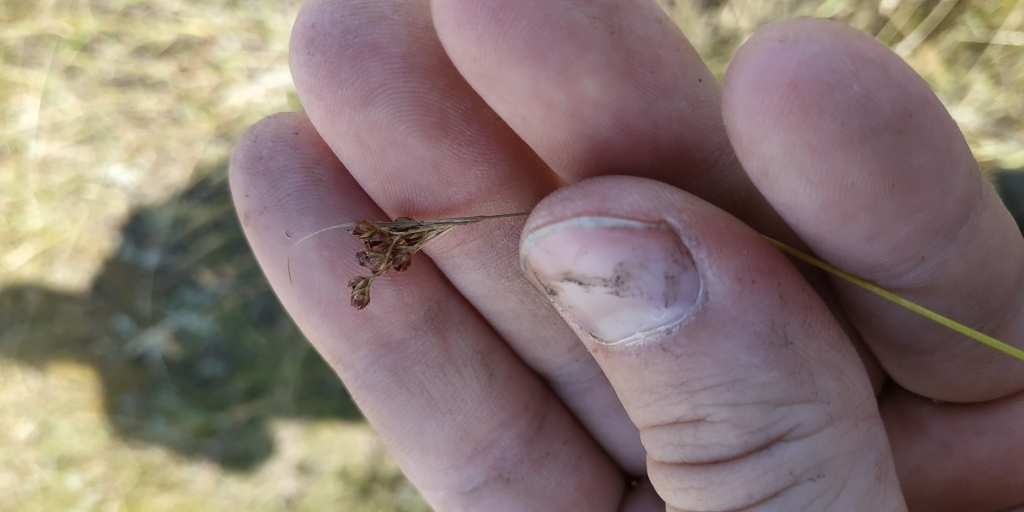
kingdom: Plantae
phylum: Tracheophyta
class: Liliopsida
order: Poales
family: Juncaceae
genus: Juncus
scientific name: Juncus compressus
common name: Round-fruited rush
